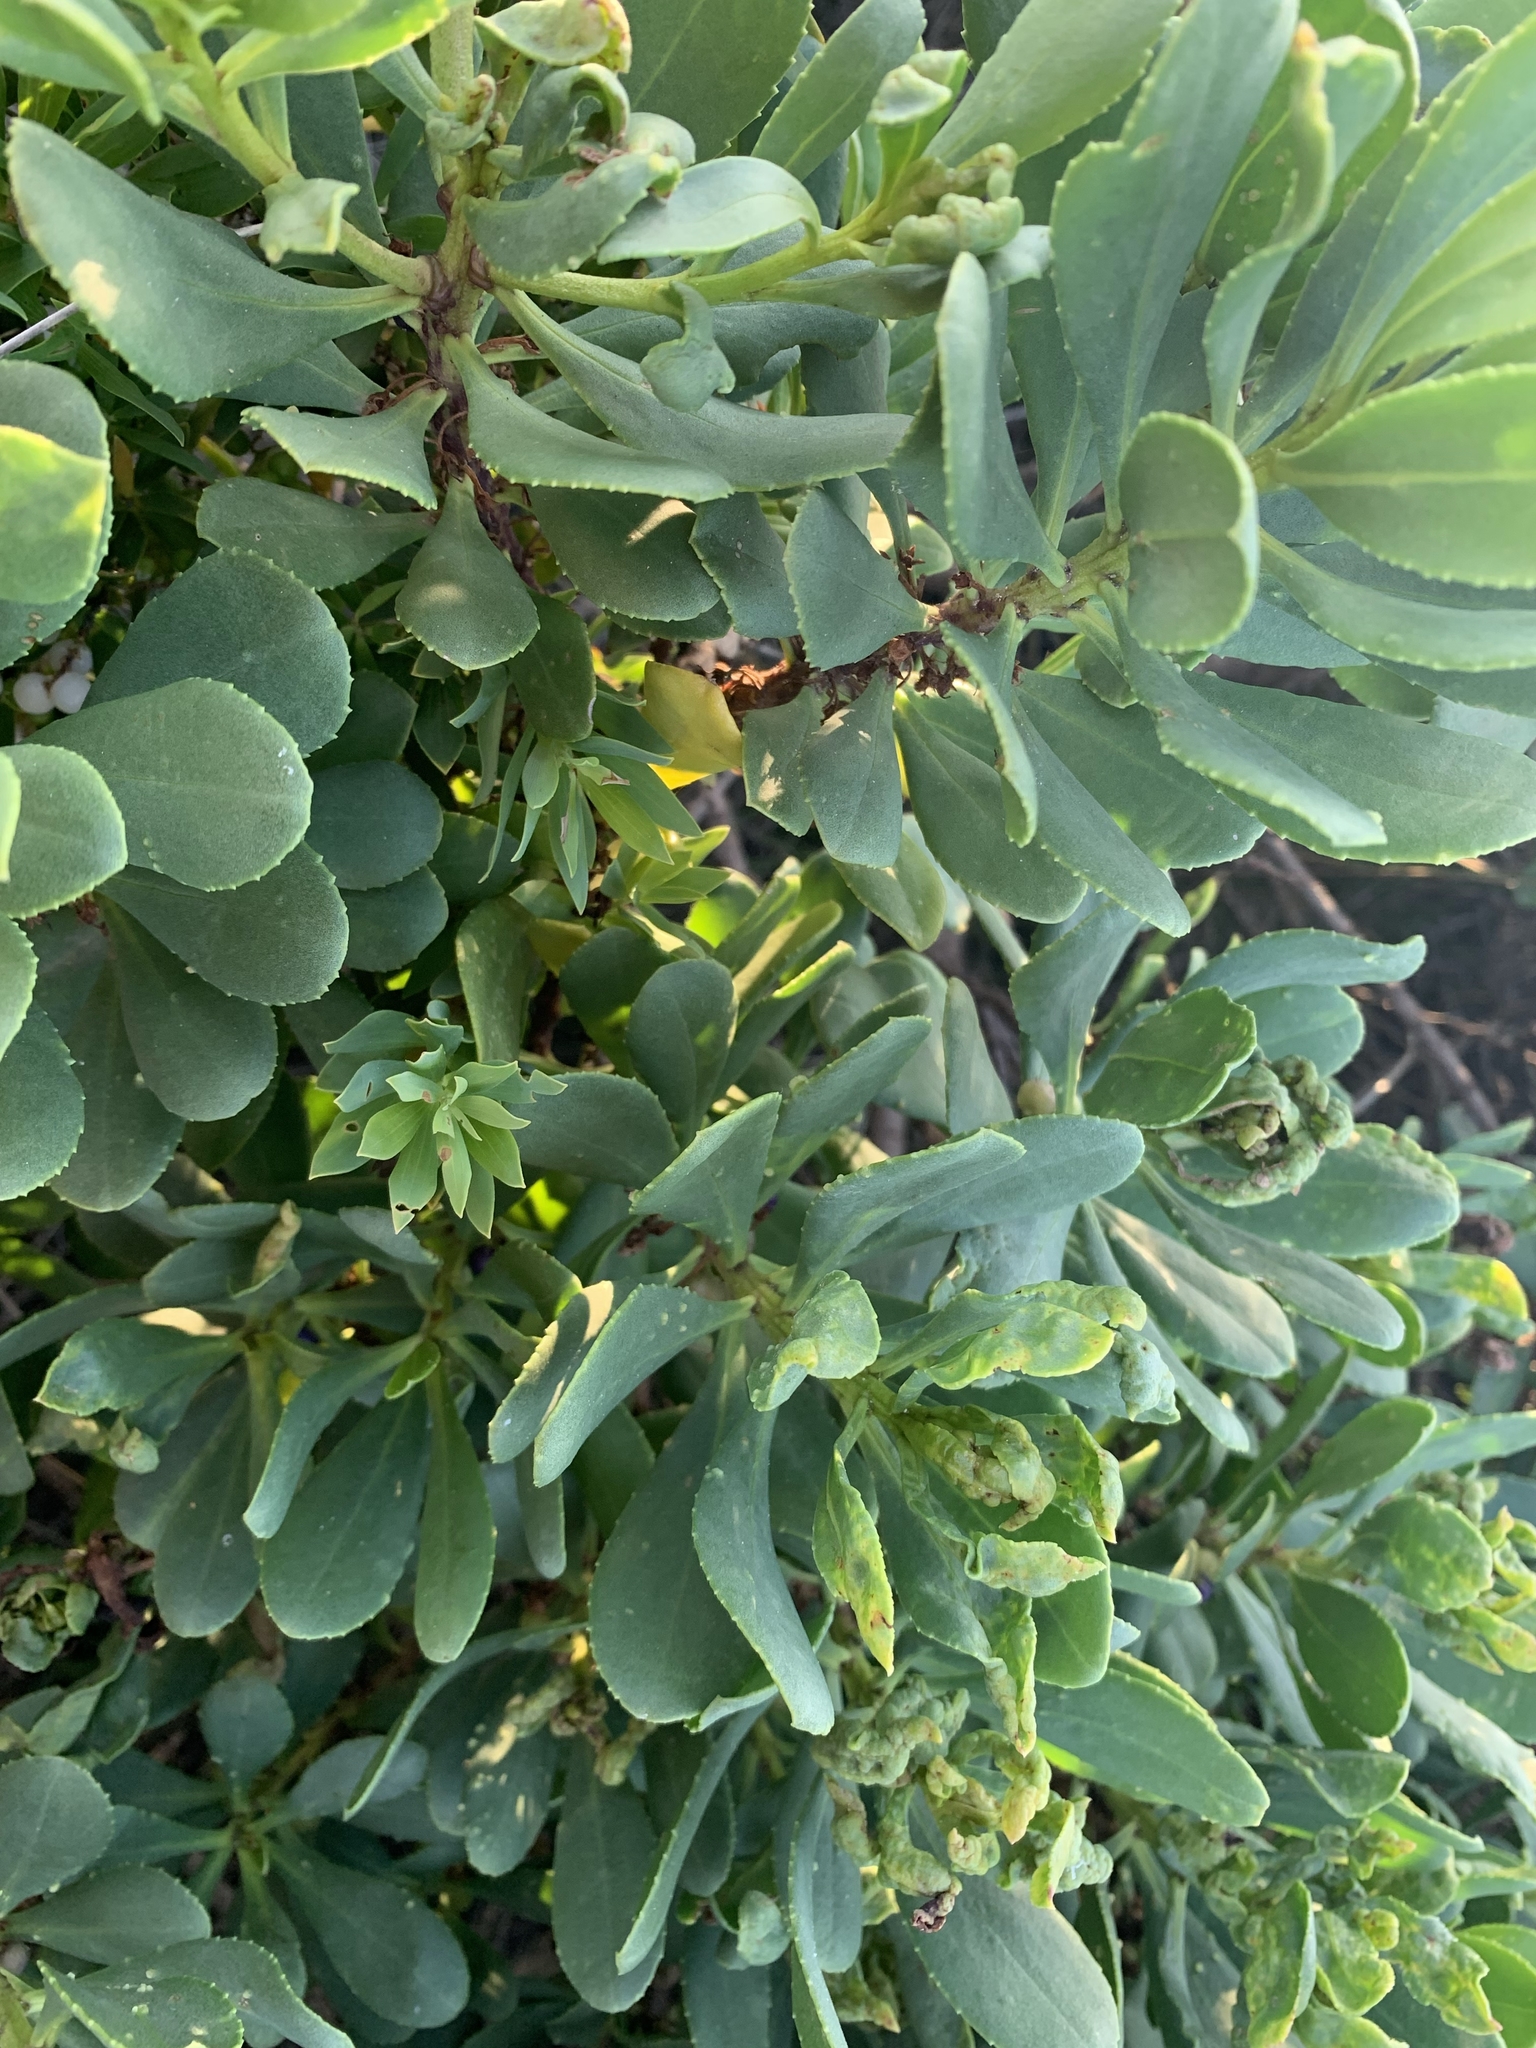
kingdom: Plantae
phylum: Tracheophyta
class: Magnoliopsida
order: Asterales
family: Asteraceae
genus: Osteospermum
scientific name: Osteospermum moniliferum
